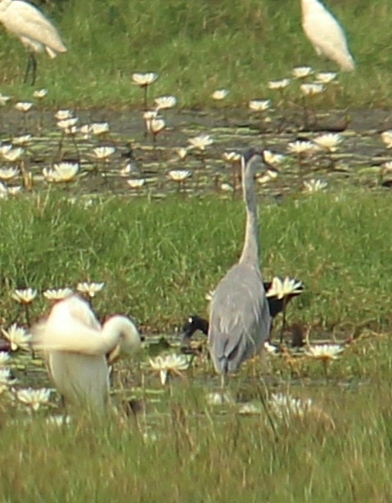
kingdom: Animalia
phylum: Chordata
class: Aves
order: Pelecaniformes
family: Ardeidae
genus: Ardea
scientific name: Ardea cinerea
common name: Grey heron
